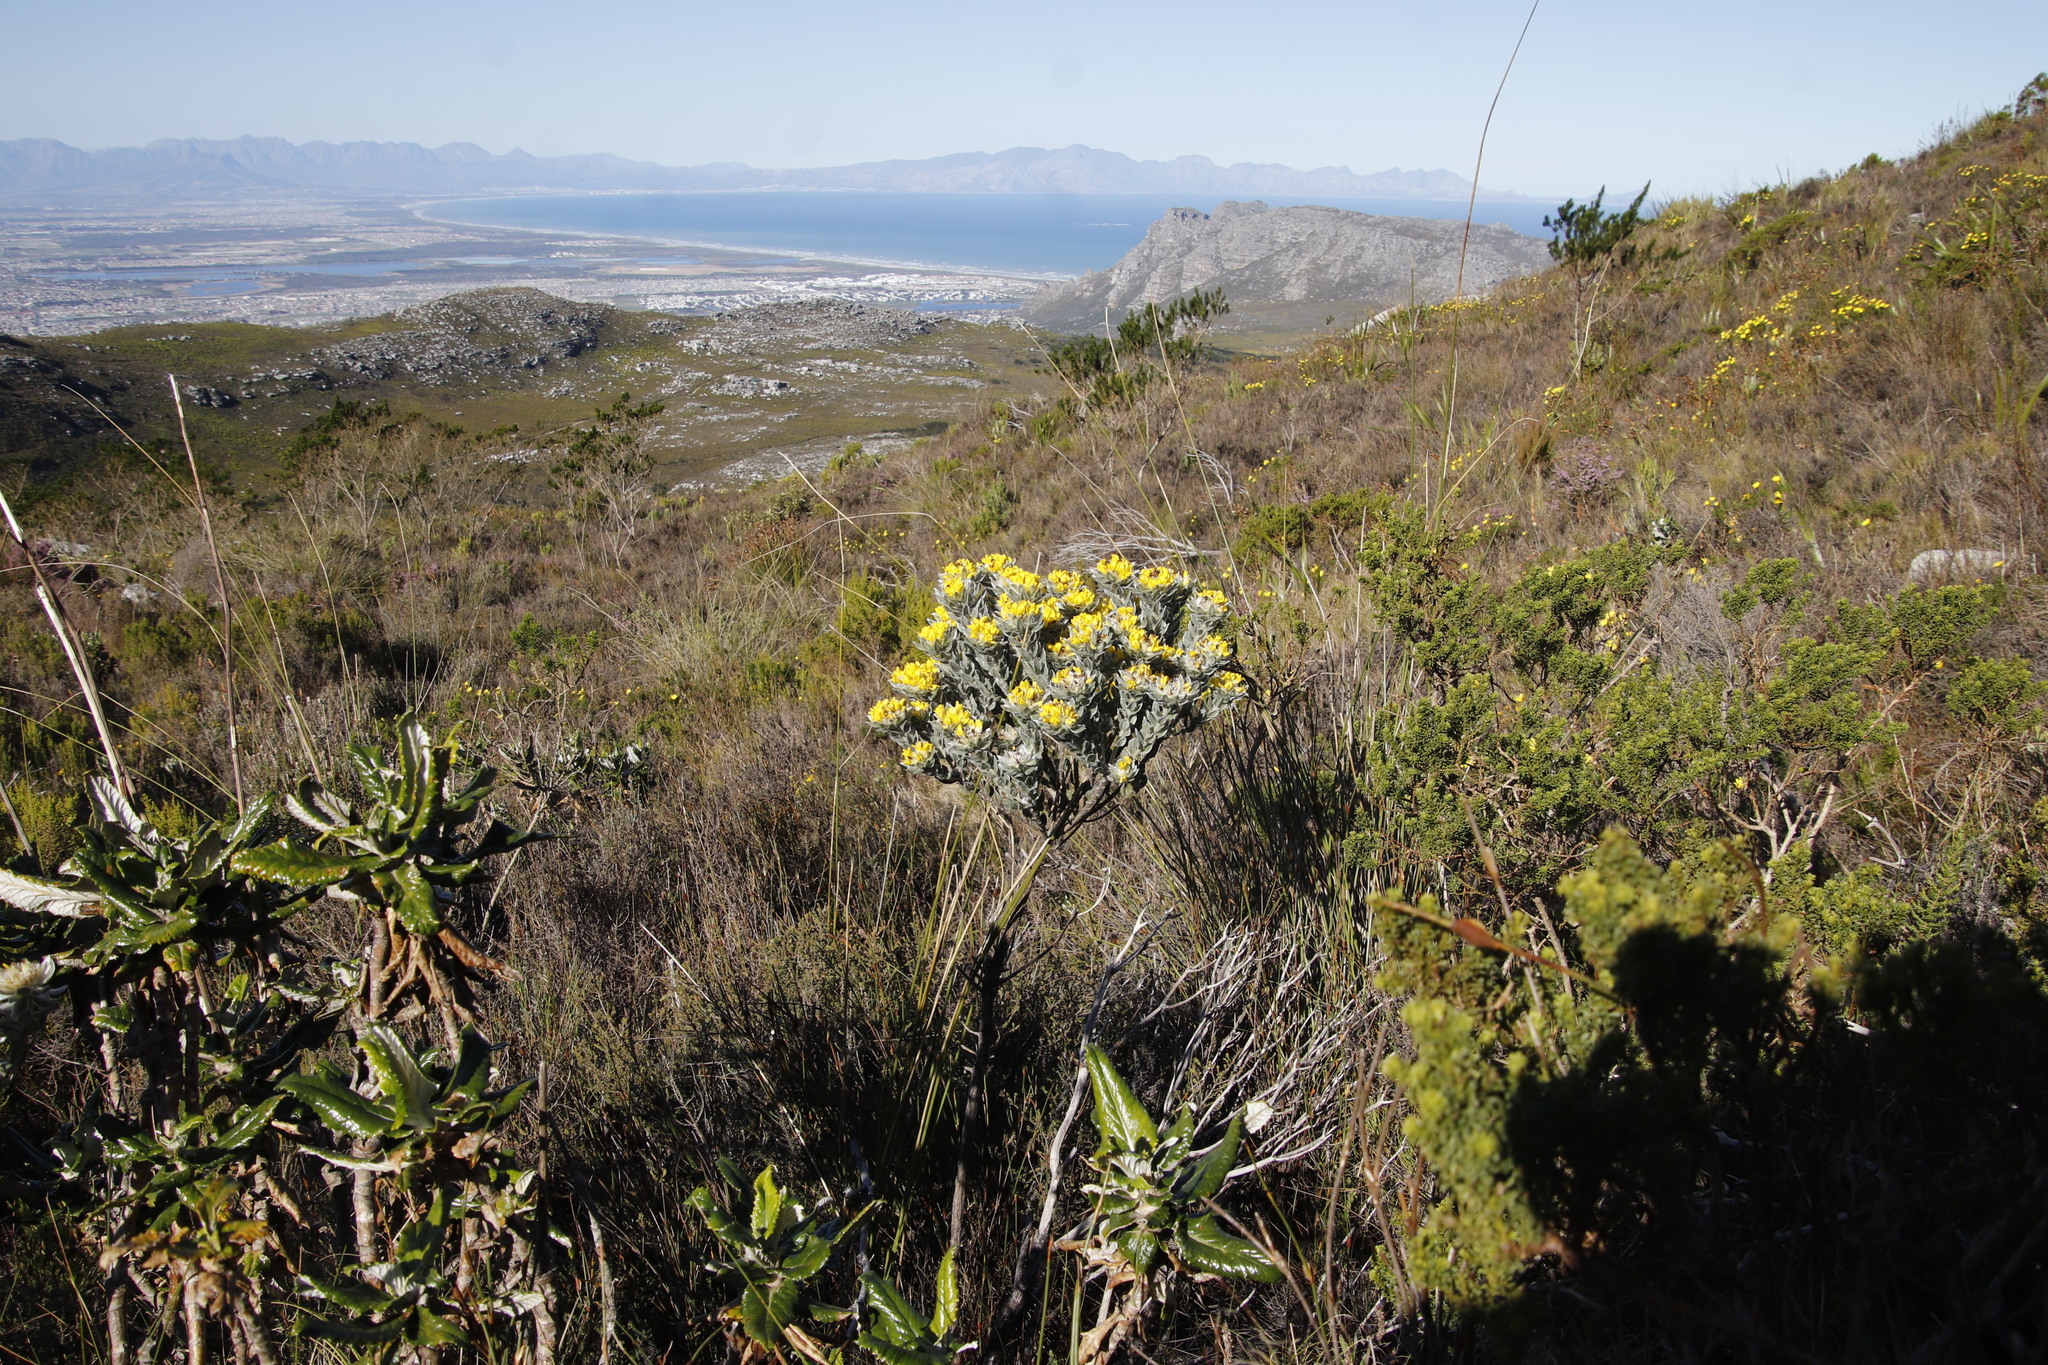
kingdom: Plantae
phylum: Tracheophyta
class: Magnoliopsida
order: Fabales
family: Fabaceae
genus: Xiphotheca
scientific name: Xiphotheca fruticosa
